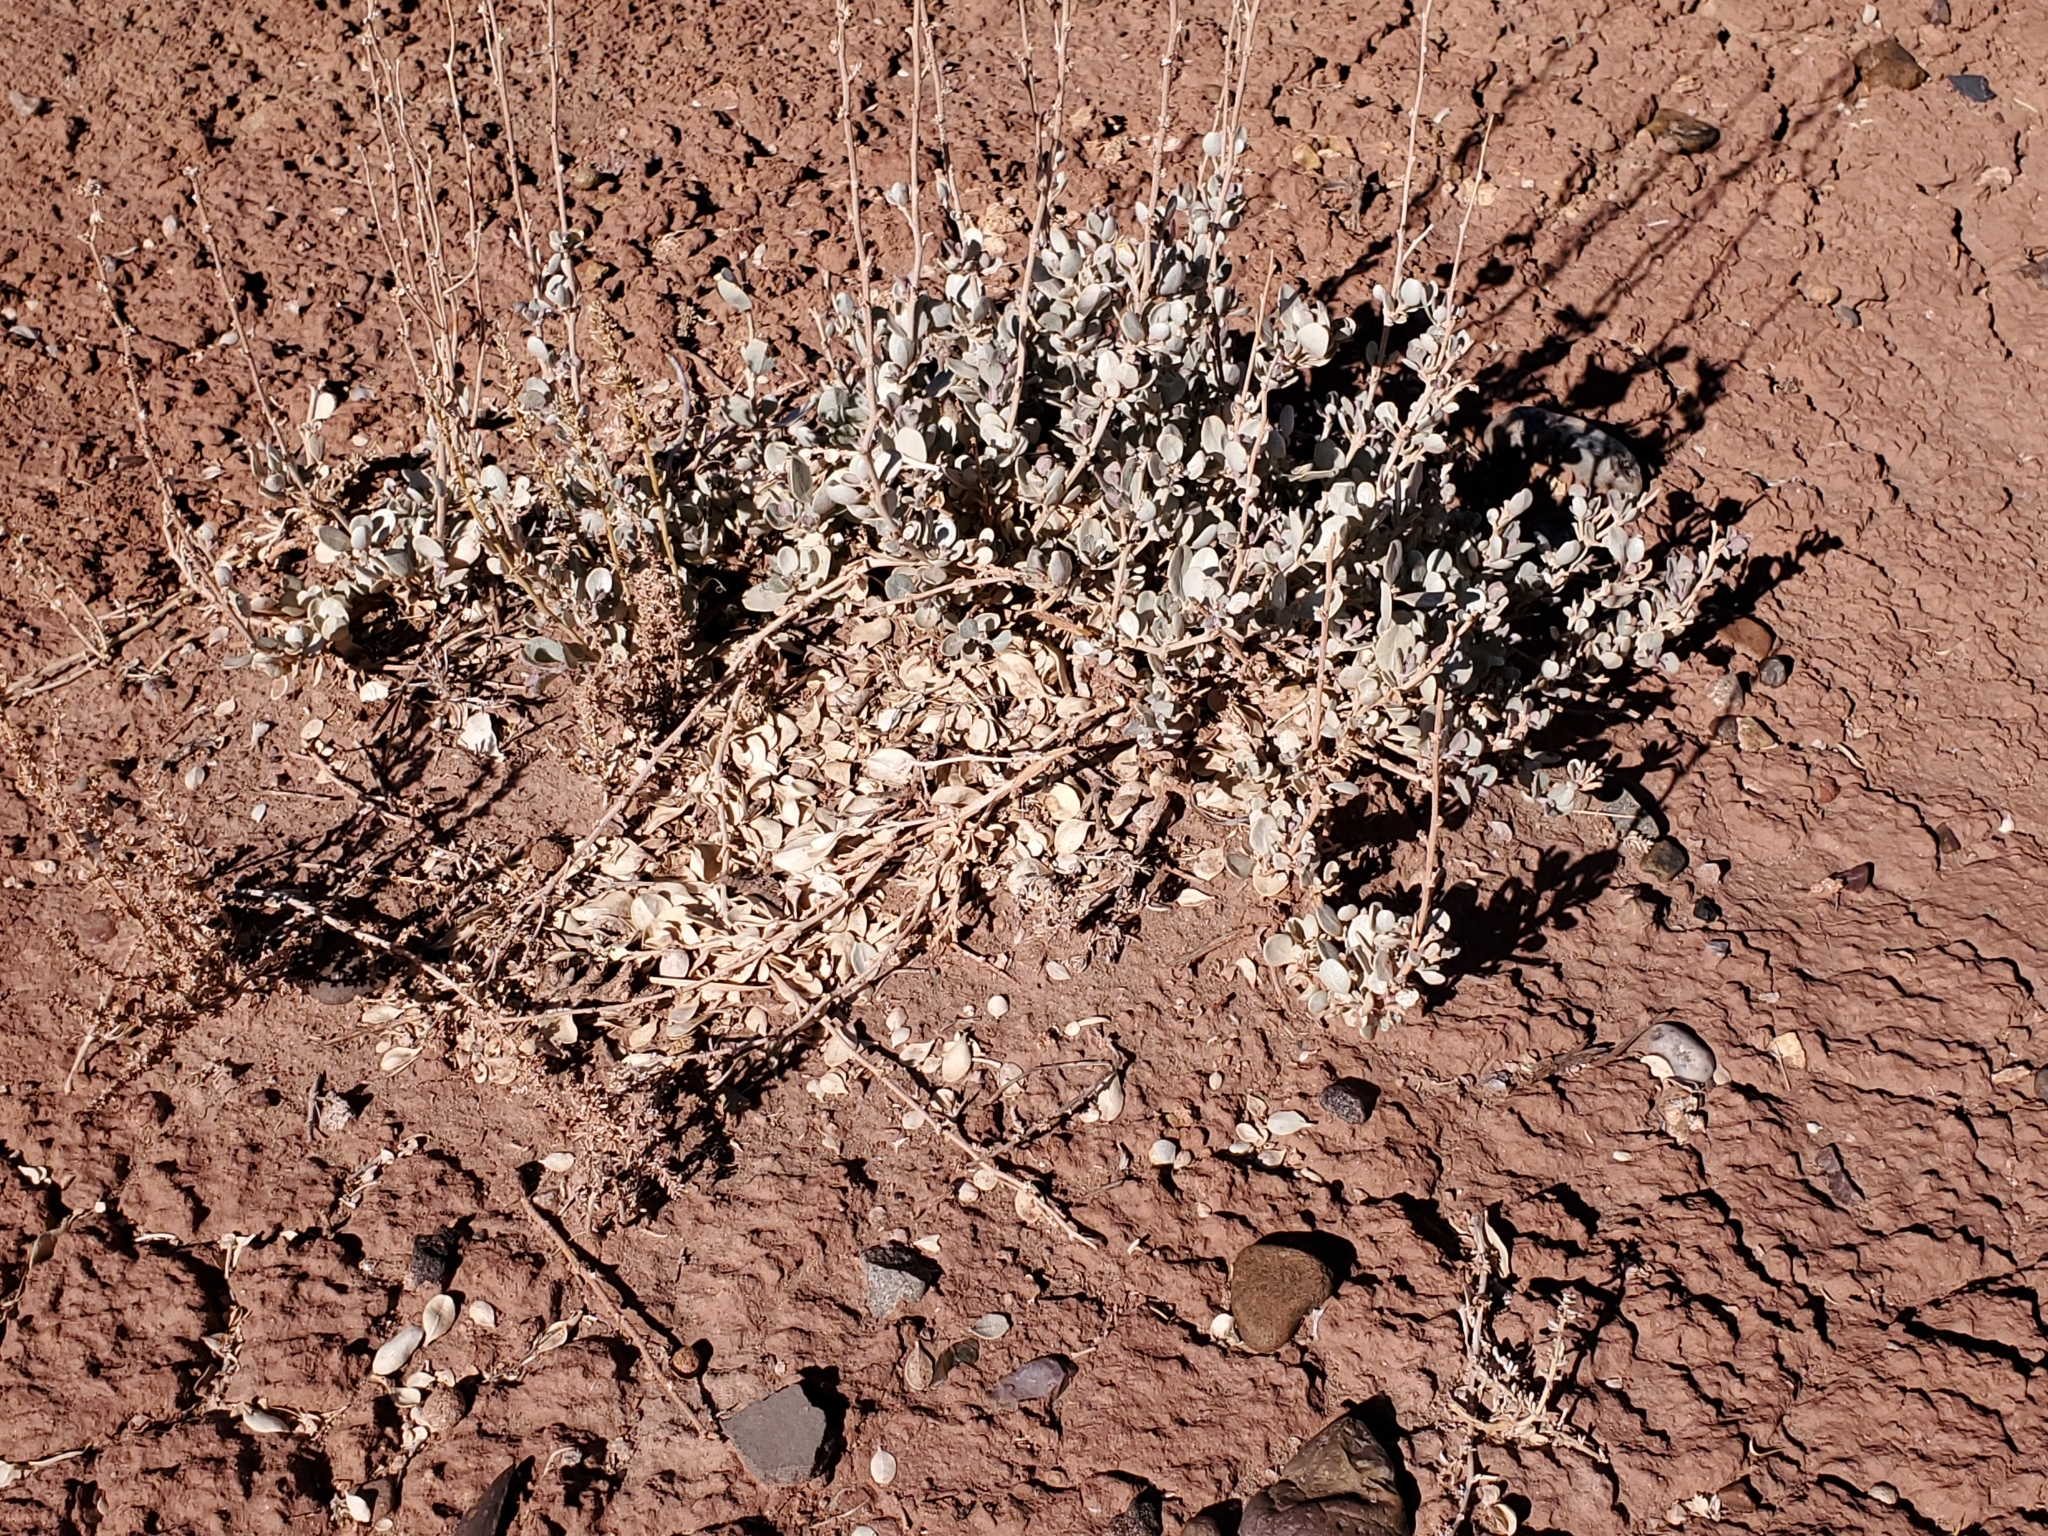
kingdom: Plantae
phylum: Tracheophyta
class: Magnoliopsida
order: Caryophyllales
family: Amaranthaceae
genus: Atriplex
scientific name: Atriplex confertifolia
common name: Shadscale
